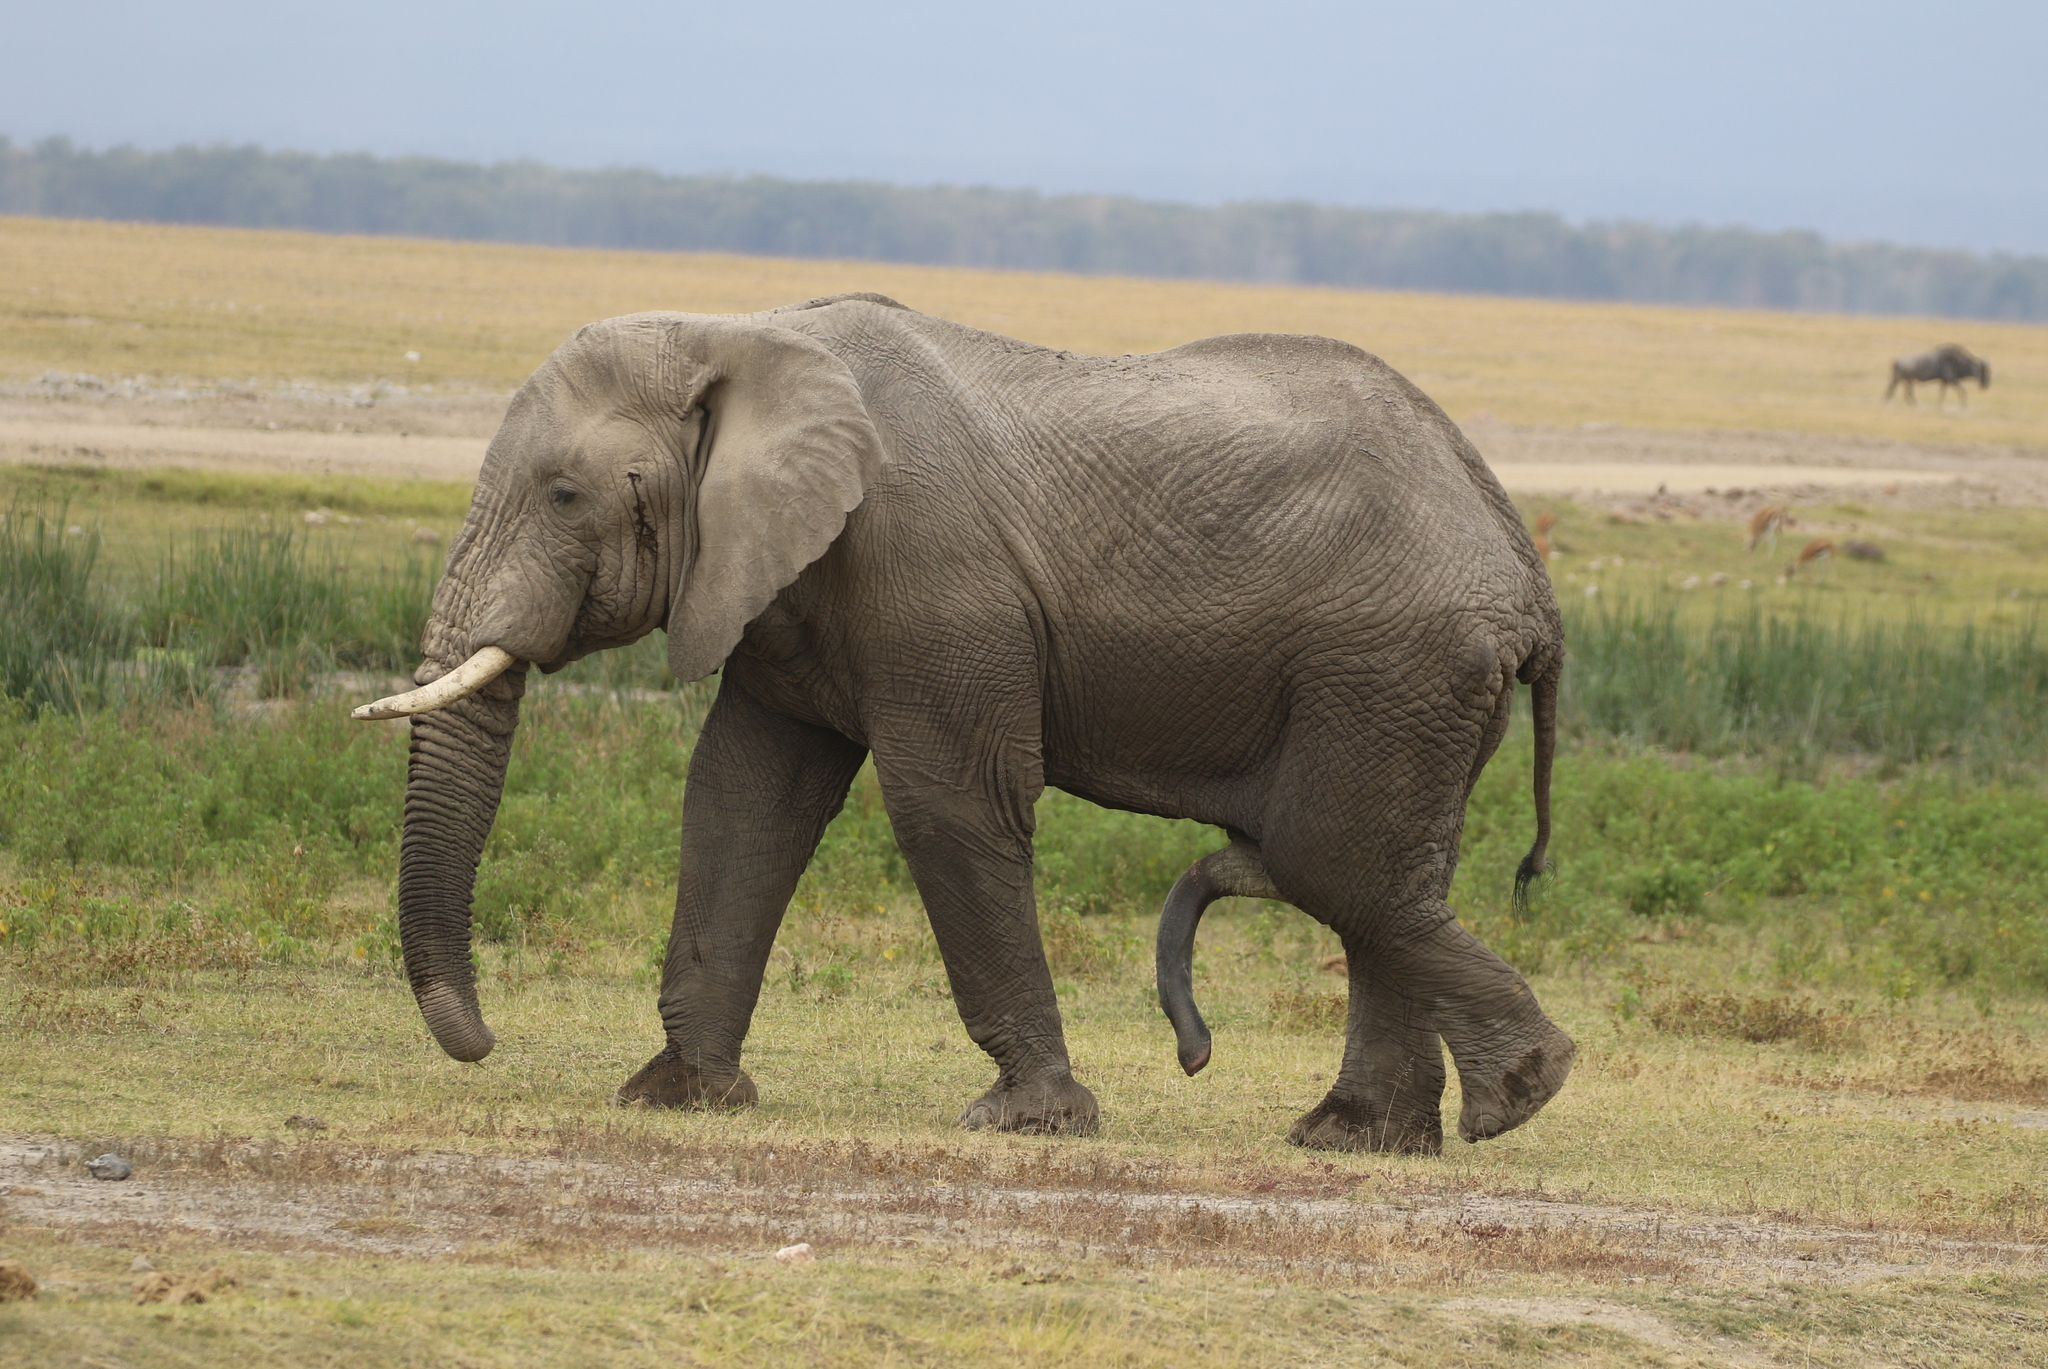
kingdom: Animalia
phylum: Chordata
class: Mammalia
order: Proboscidea
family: Elephantidae
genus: Loxodonta
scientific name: Loxodonta africana
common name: African elephant
